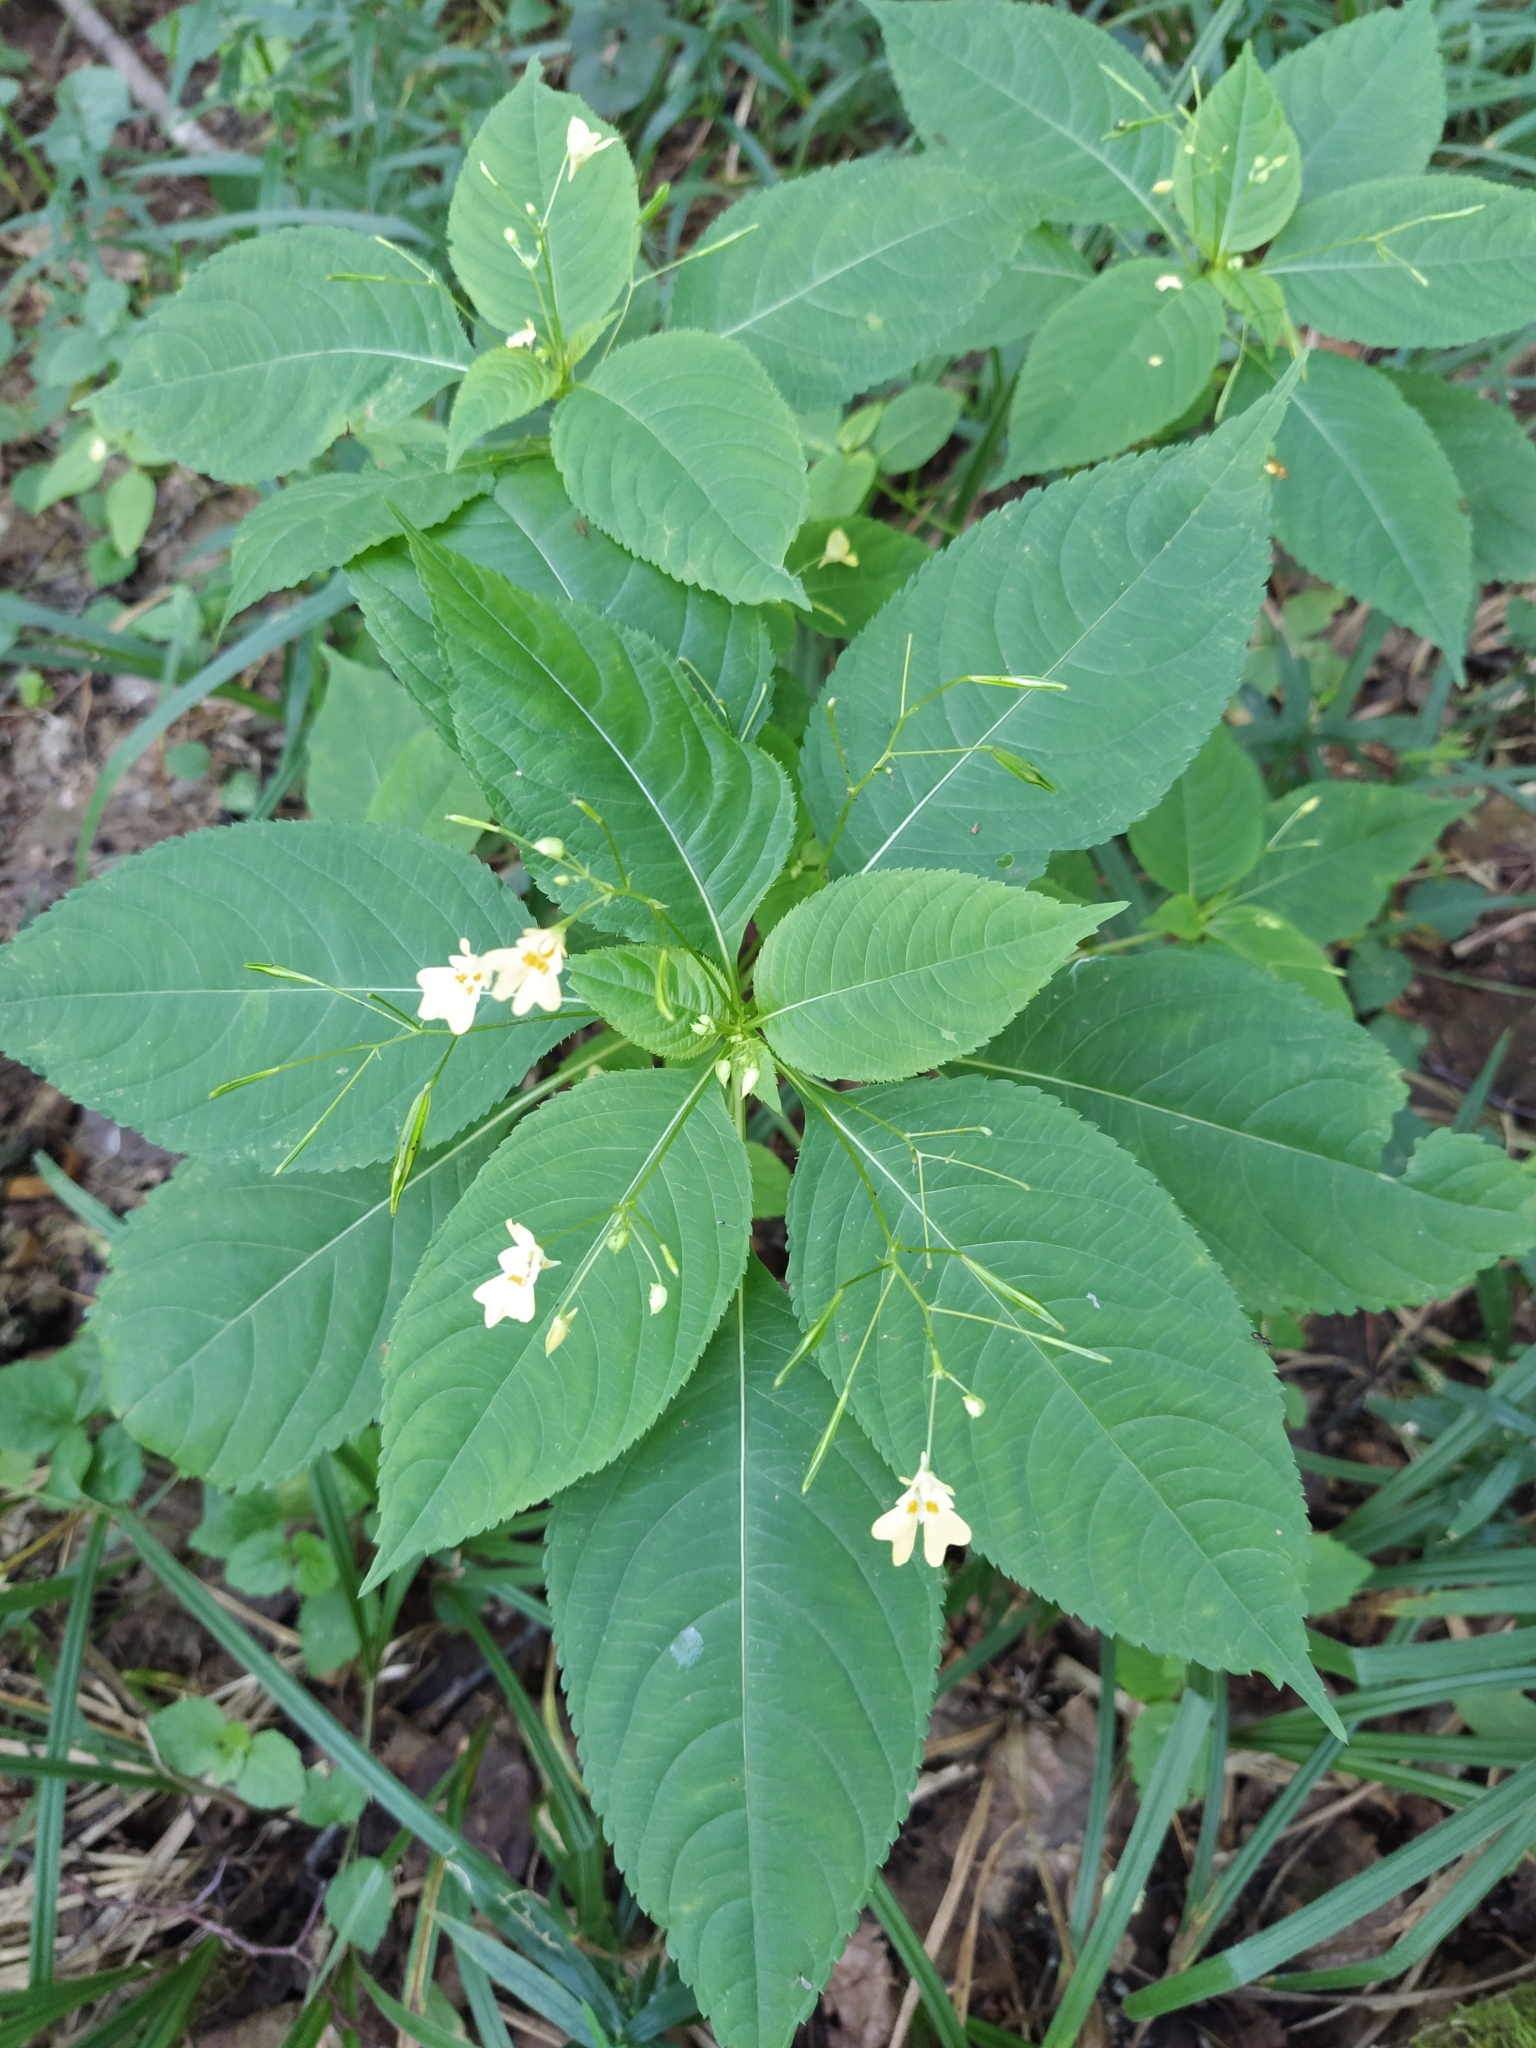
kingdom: Plantae
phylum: Tracheophyta
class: Magnoliopsida
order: Ericales
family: Balsaminaceae
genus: Impatiens
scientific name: Impatiens parviflora
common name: Small balsam
